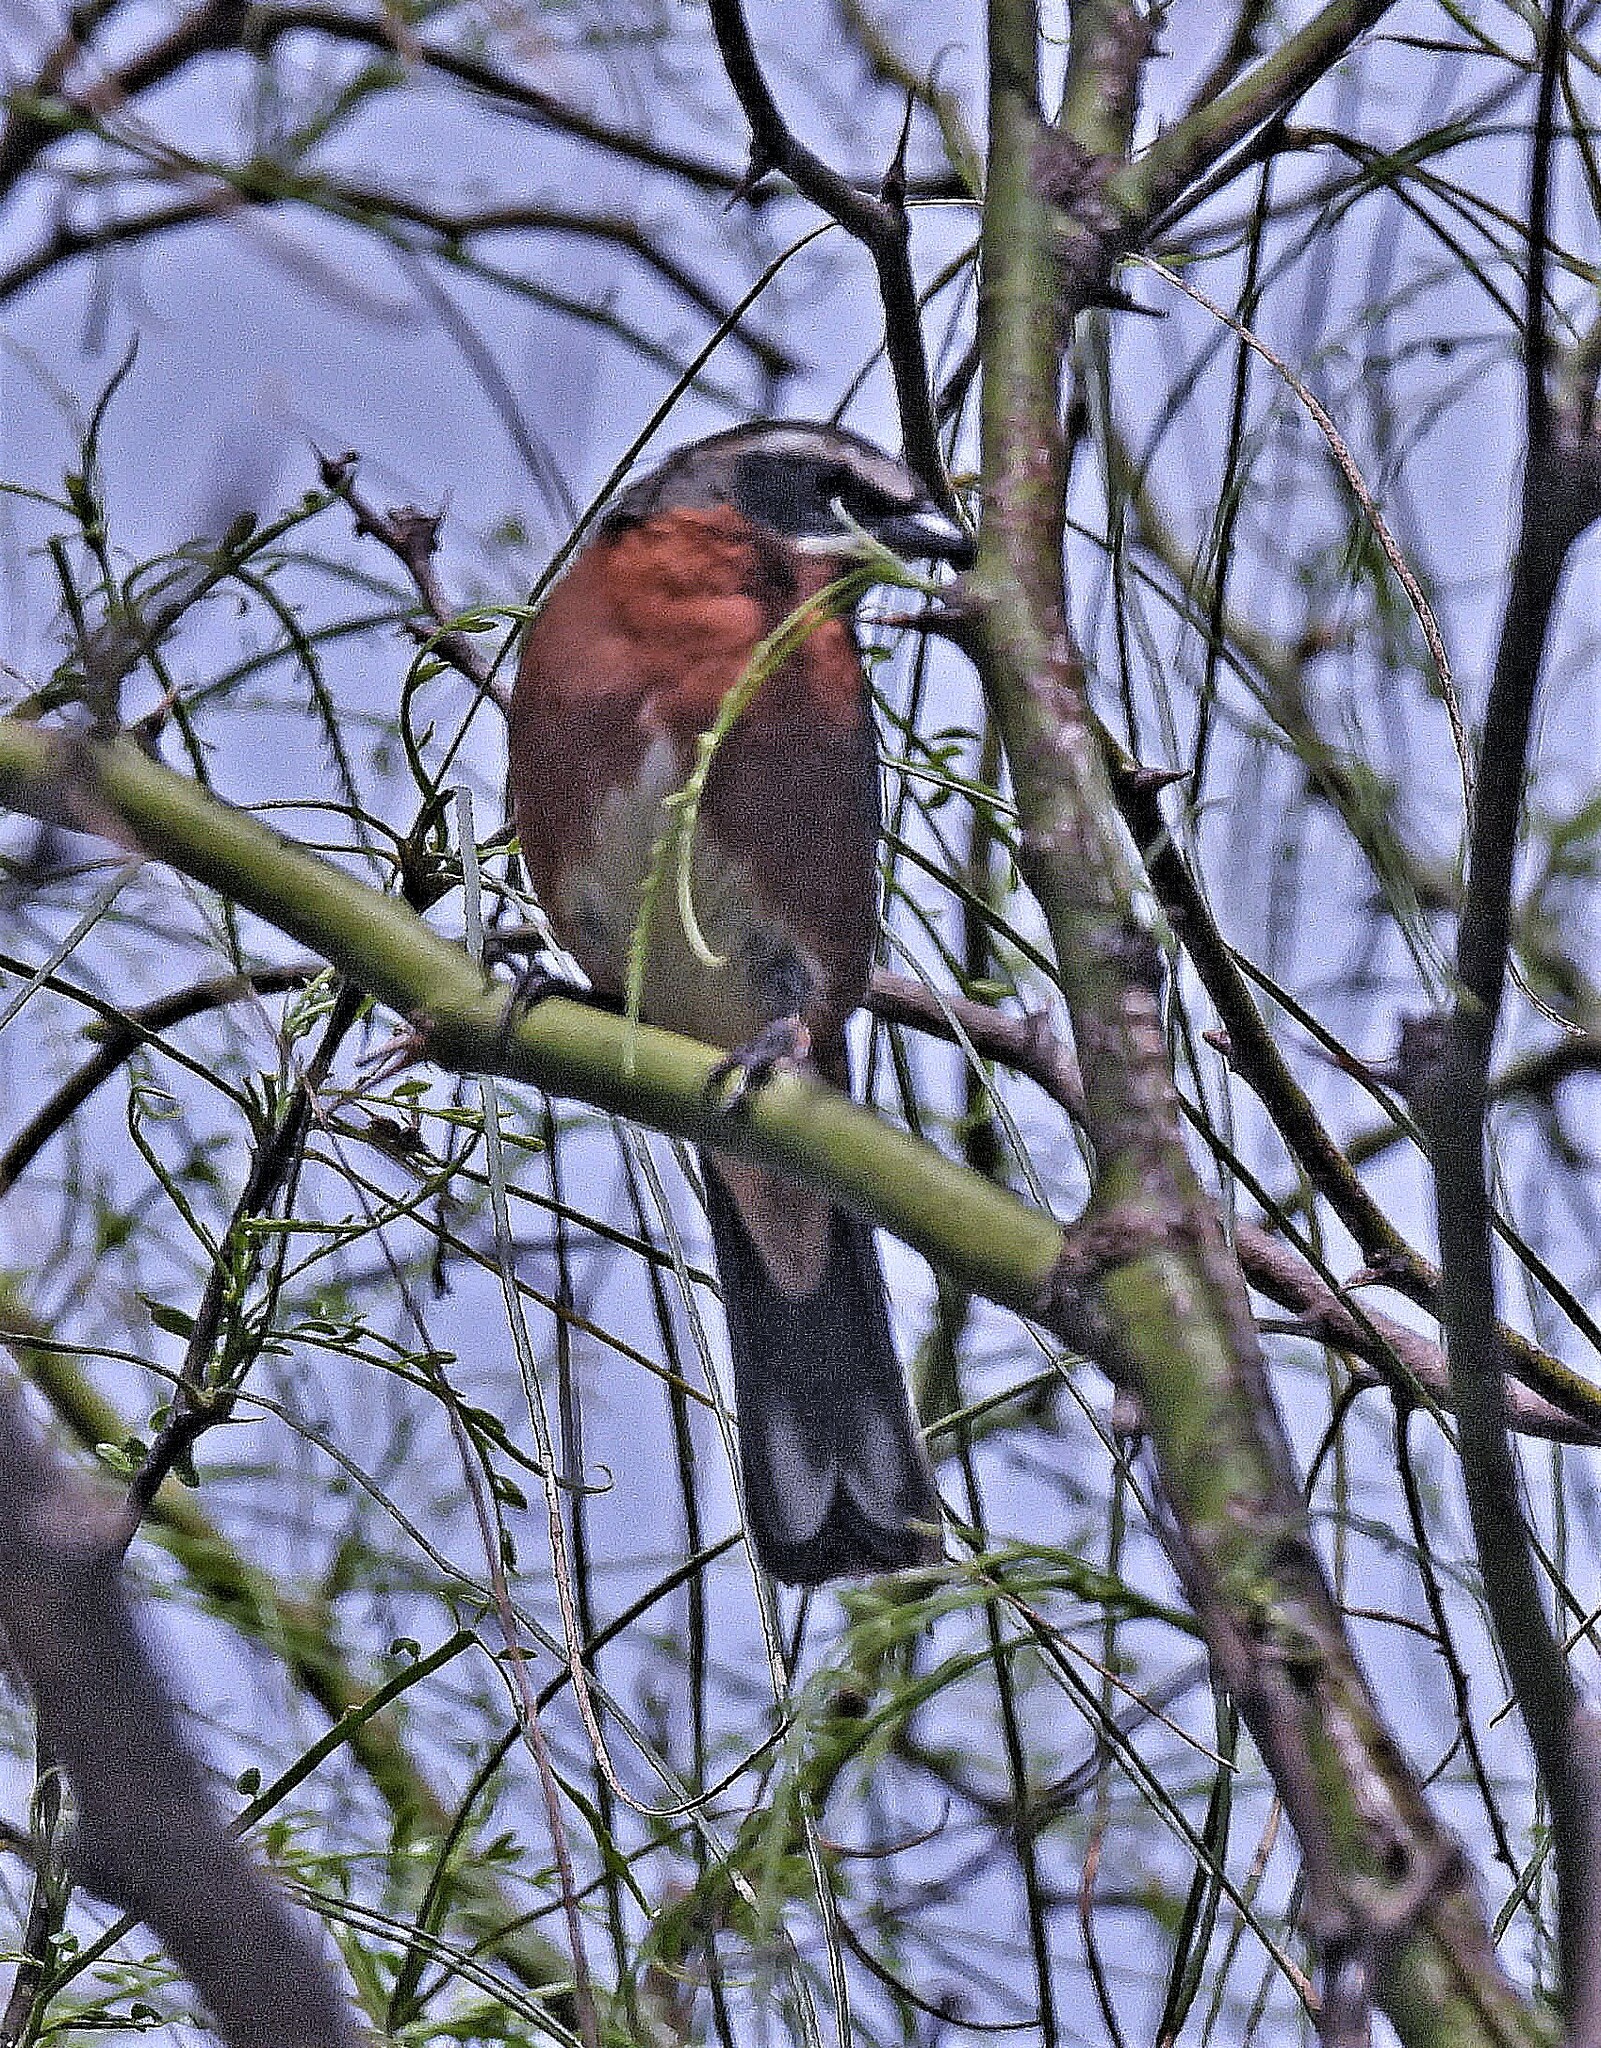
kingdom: Animalia
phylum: Chordata
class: Aves
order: Passeriformes
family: Thraupidae
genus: Poospiza
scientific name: Poospiza nigrorufa
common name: Black-and-rufous warbling finch
